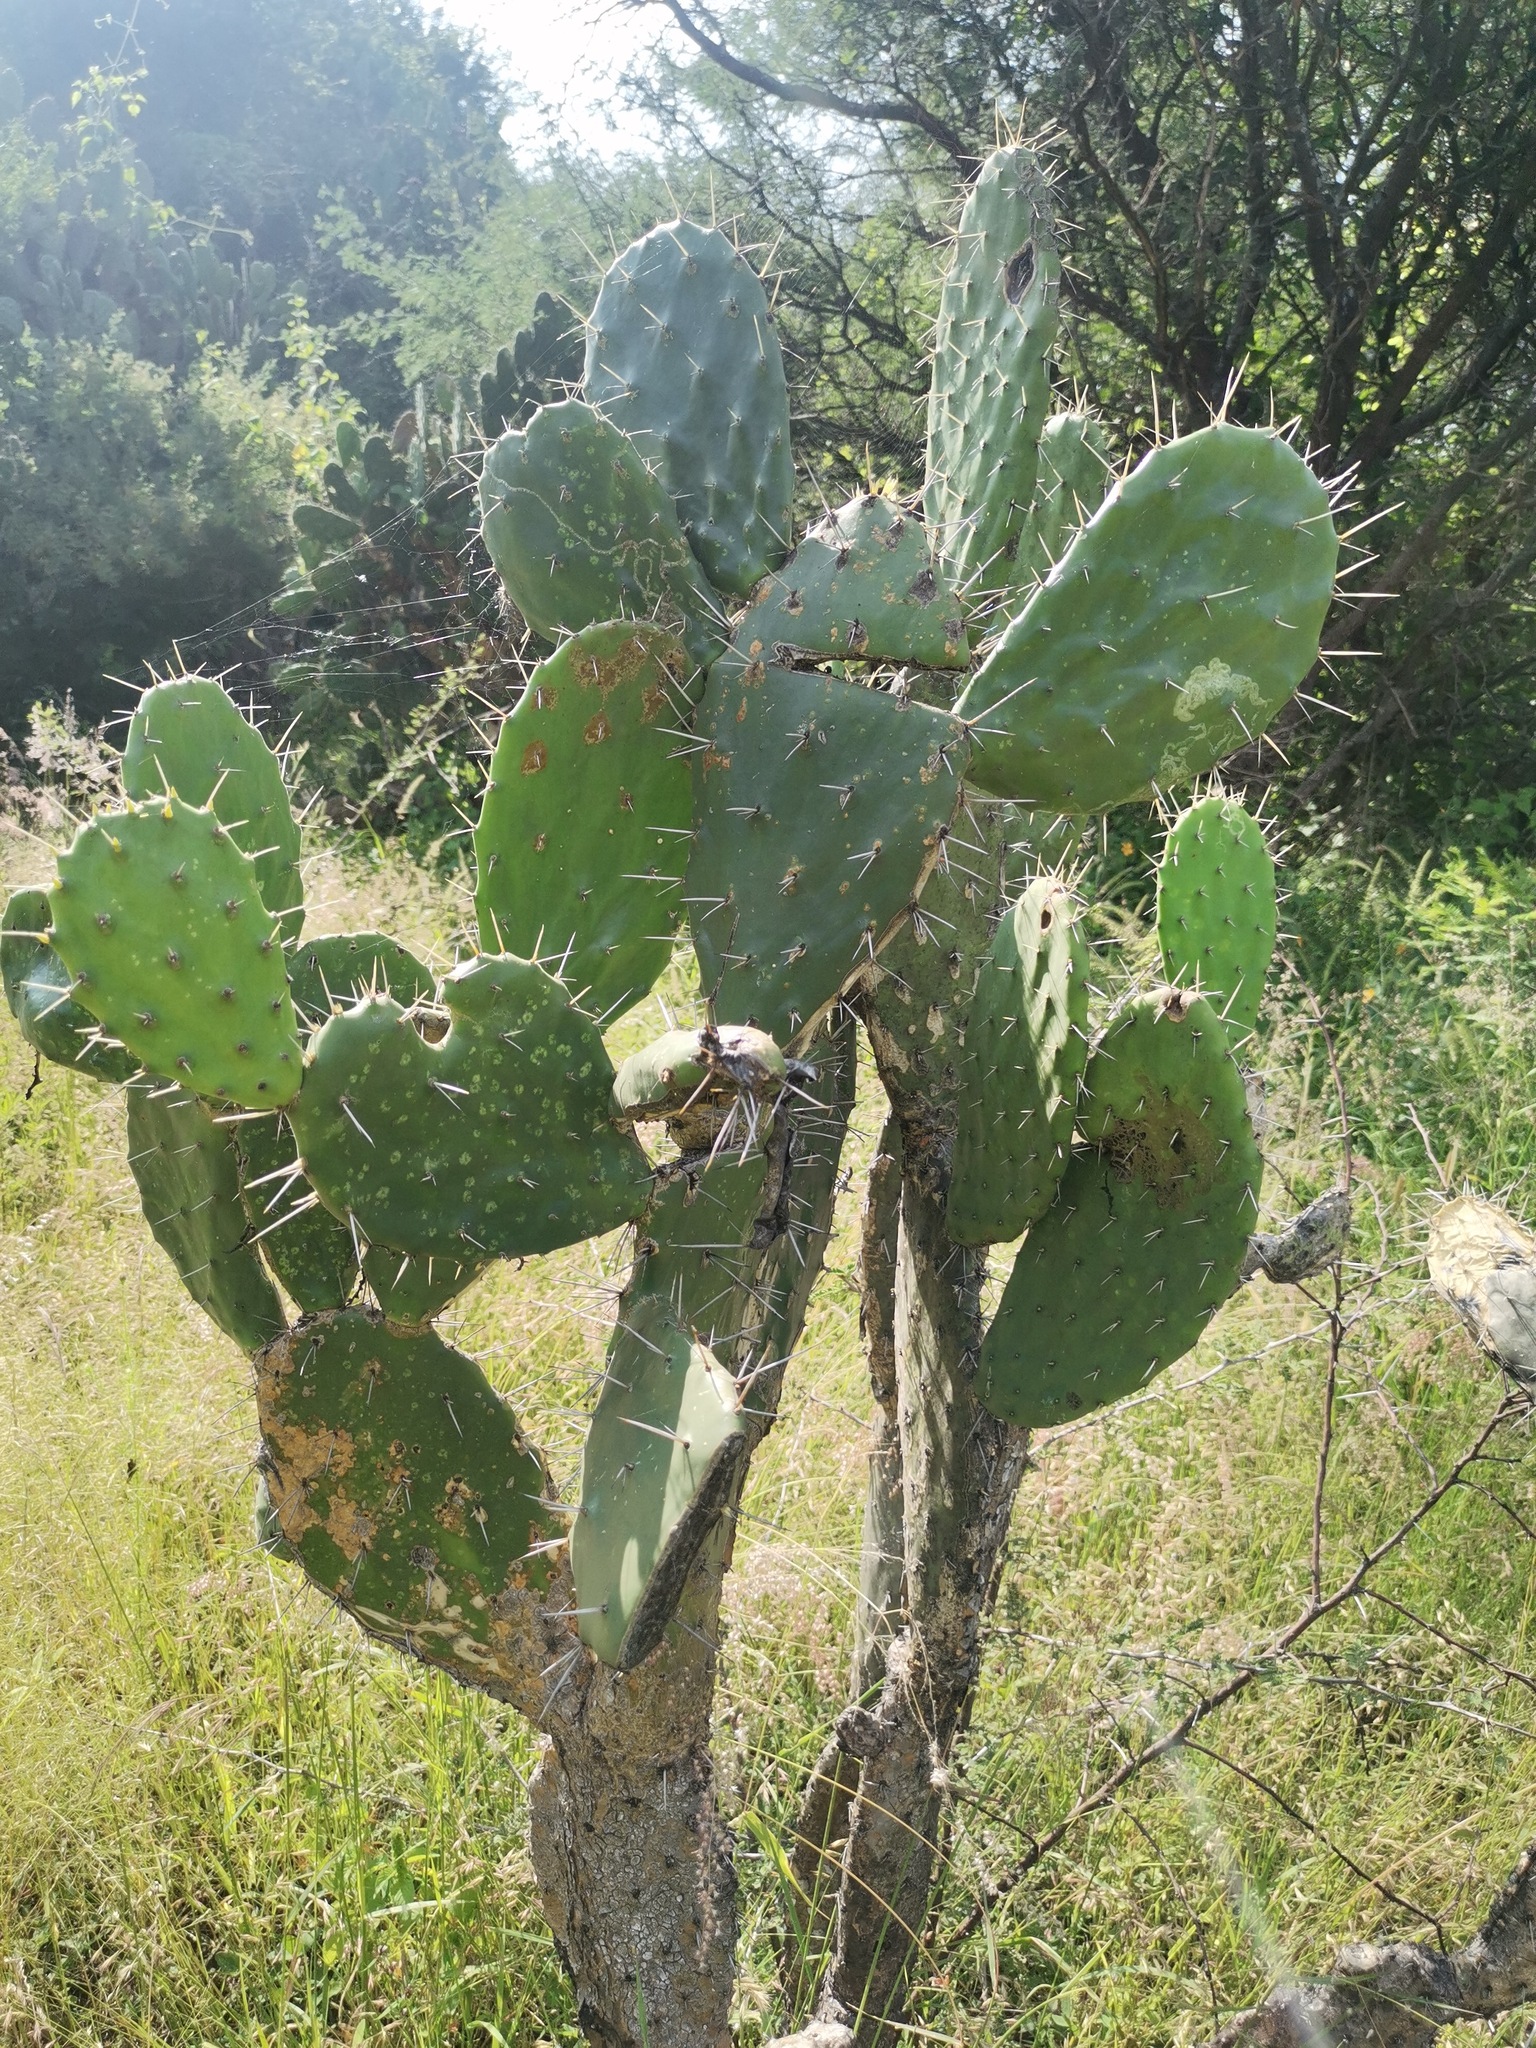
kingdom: Plantae
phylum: Tracheophyta
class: Magnoliopsida
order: Caryophyllales
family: Cactaceae
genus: Opuntia
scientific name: Opuntia tomentosa
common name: Woollyjoint pricklypear
